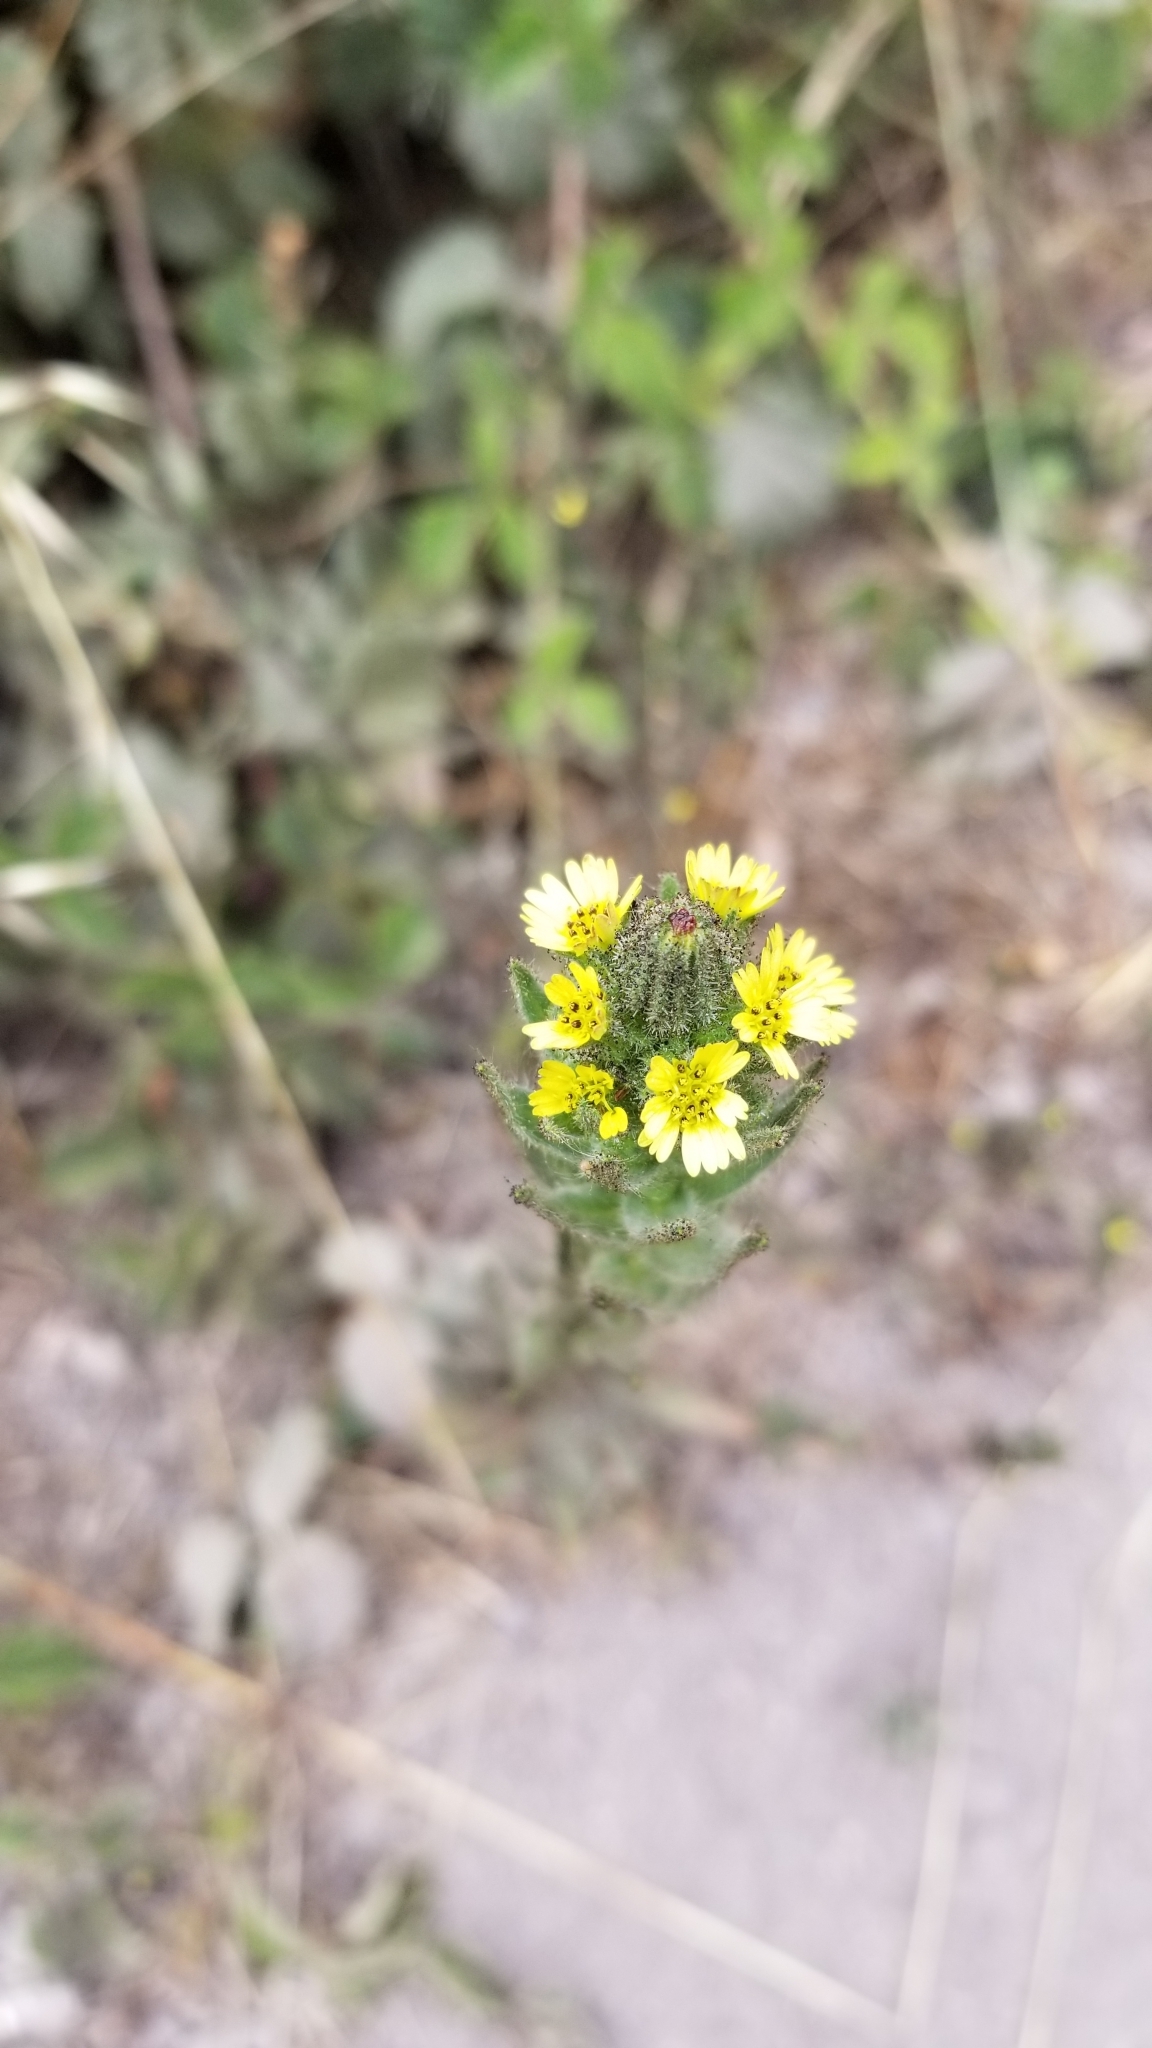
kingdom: Plantae
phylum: Tracheophyta
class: Magnoliopsida
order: Asterales
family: Asteraceae
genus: Madia
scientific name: Madia sativa
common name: Coast tarweed
